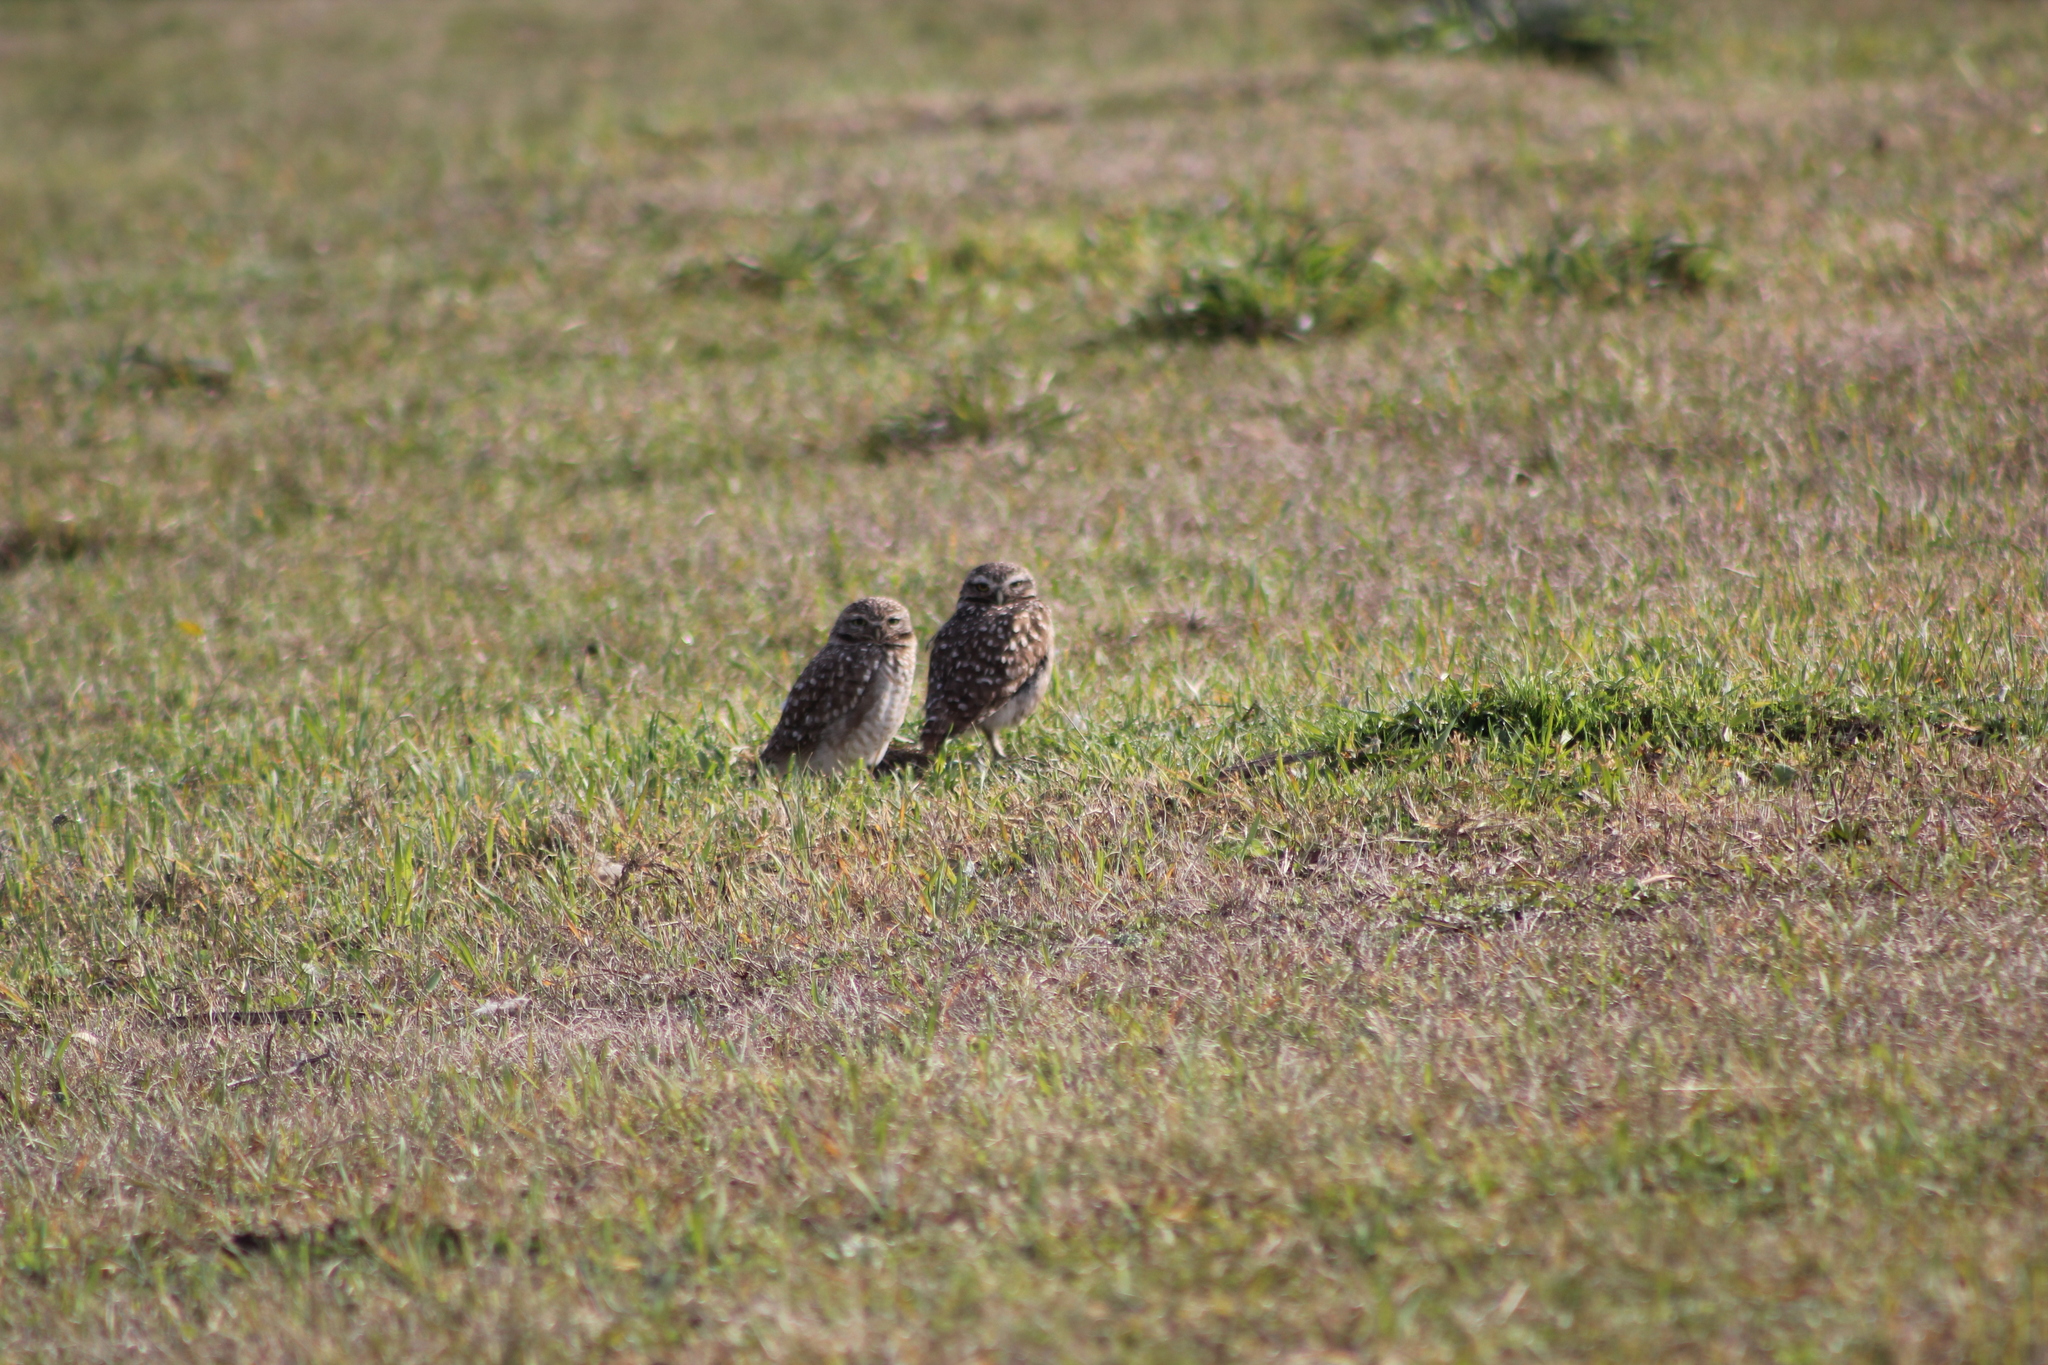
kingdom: Animalia
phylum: Chordata
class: Aves
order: Strigiformes
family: Strigidae
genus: Athene
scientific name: Athene cunicularia
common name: Burrowing owl
